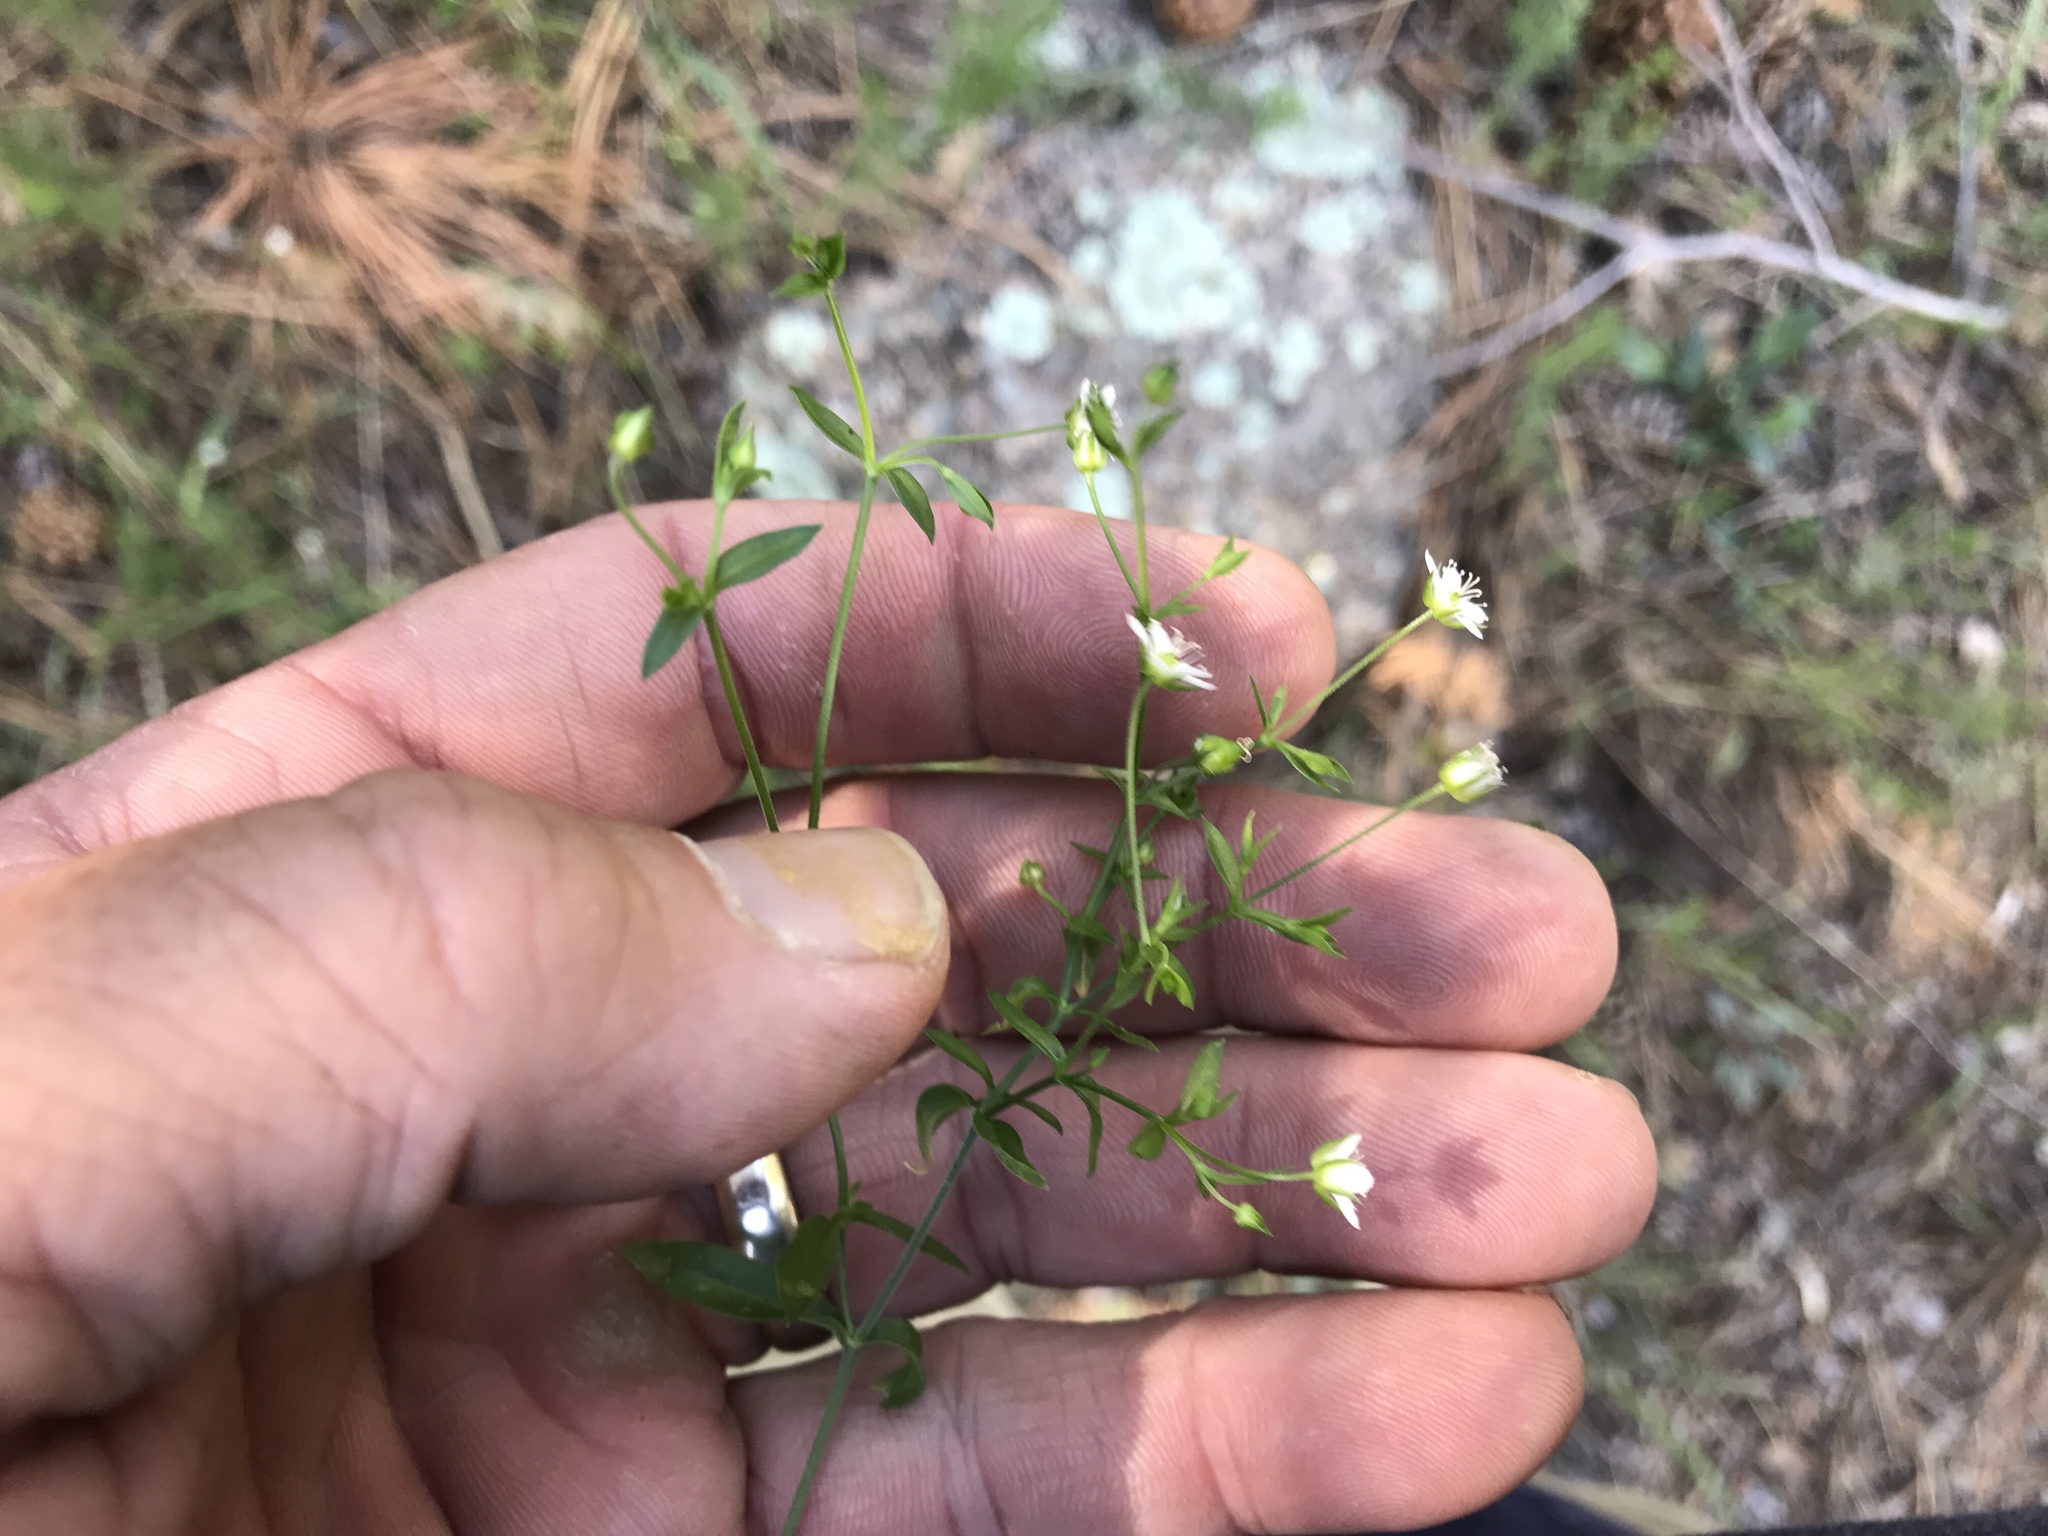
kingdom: Plantae
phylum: Tracheophyta
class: Magnoliopsida
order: Caryophyllales
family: Caryophyllaceae
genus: Arenaria
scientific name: Arenaria lanuginosa
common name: Spread sandwort
